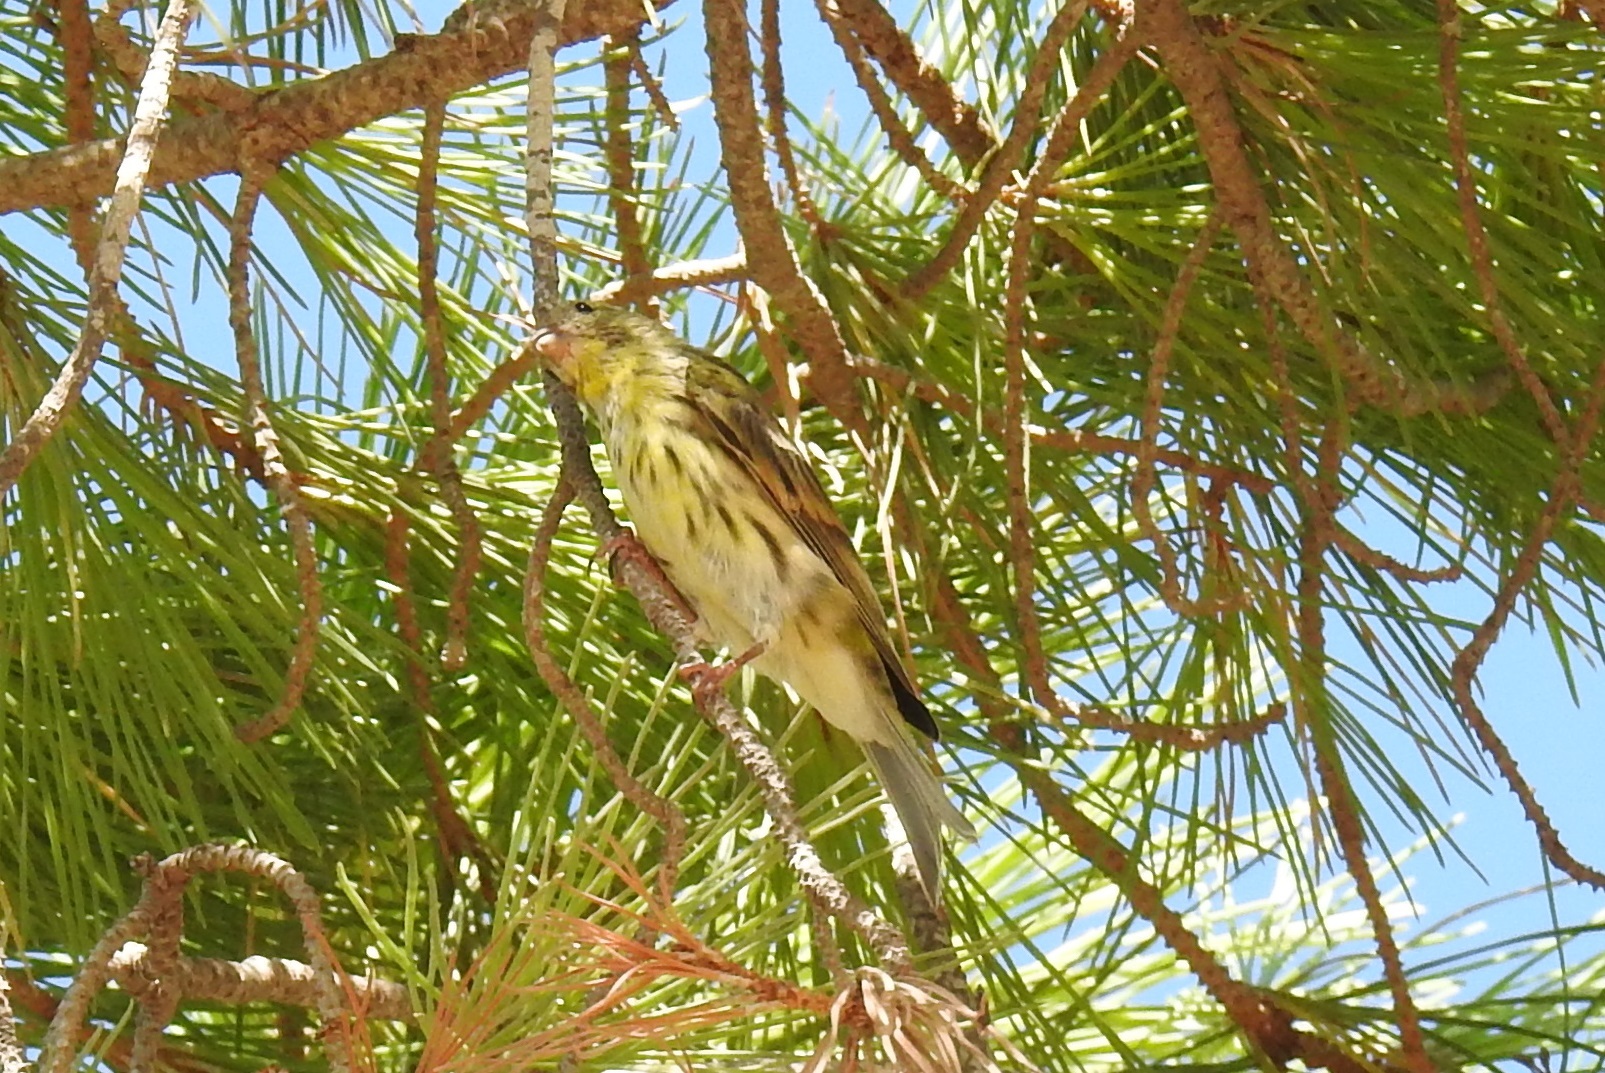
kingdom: Animalia
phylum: Chordata
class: Aves
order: Passeriformes
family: Fringillidae
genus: Serinus
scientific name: Serinus serinus
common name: European serin
